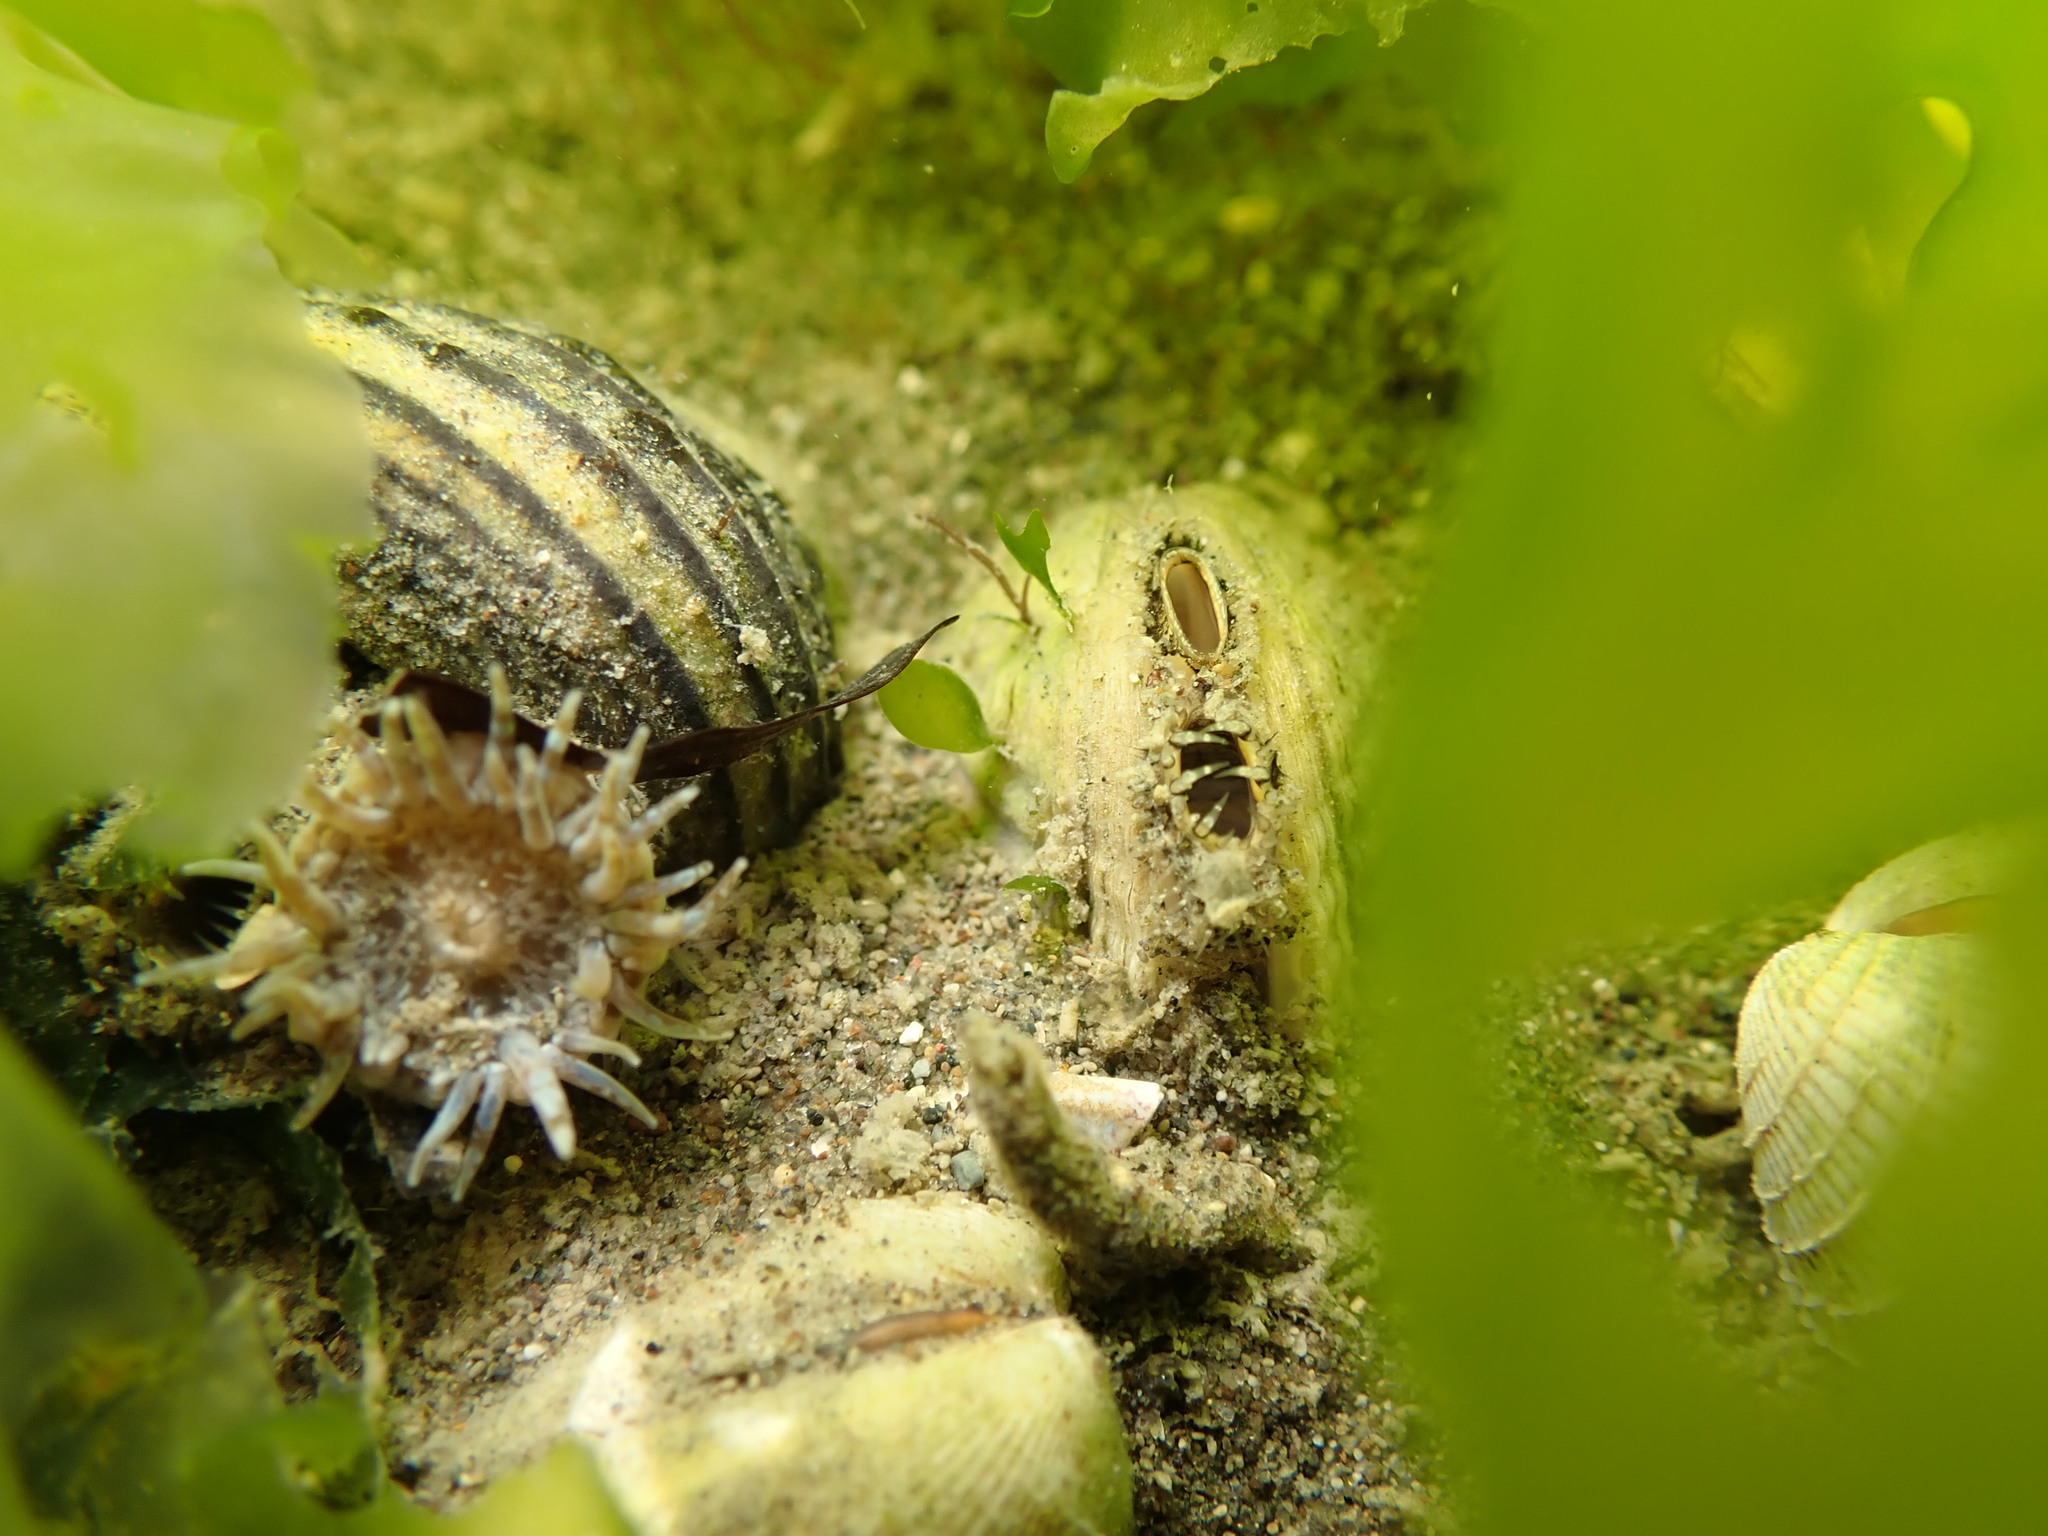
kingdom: Animalia
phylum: Mollusca
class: Bivalvia
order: Venerida
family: Veneridae
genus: Austrovenus
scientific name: Austrovenus stutchburyi
